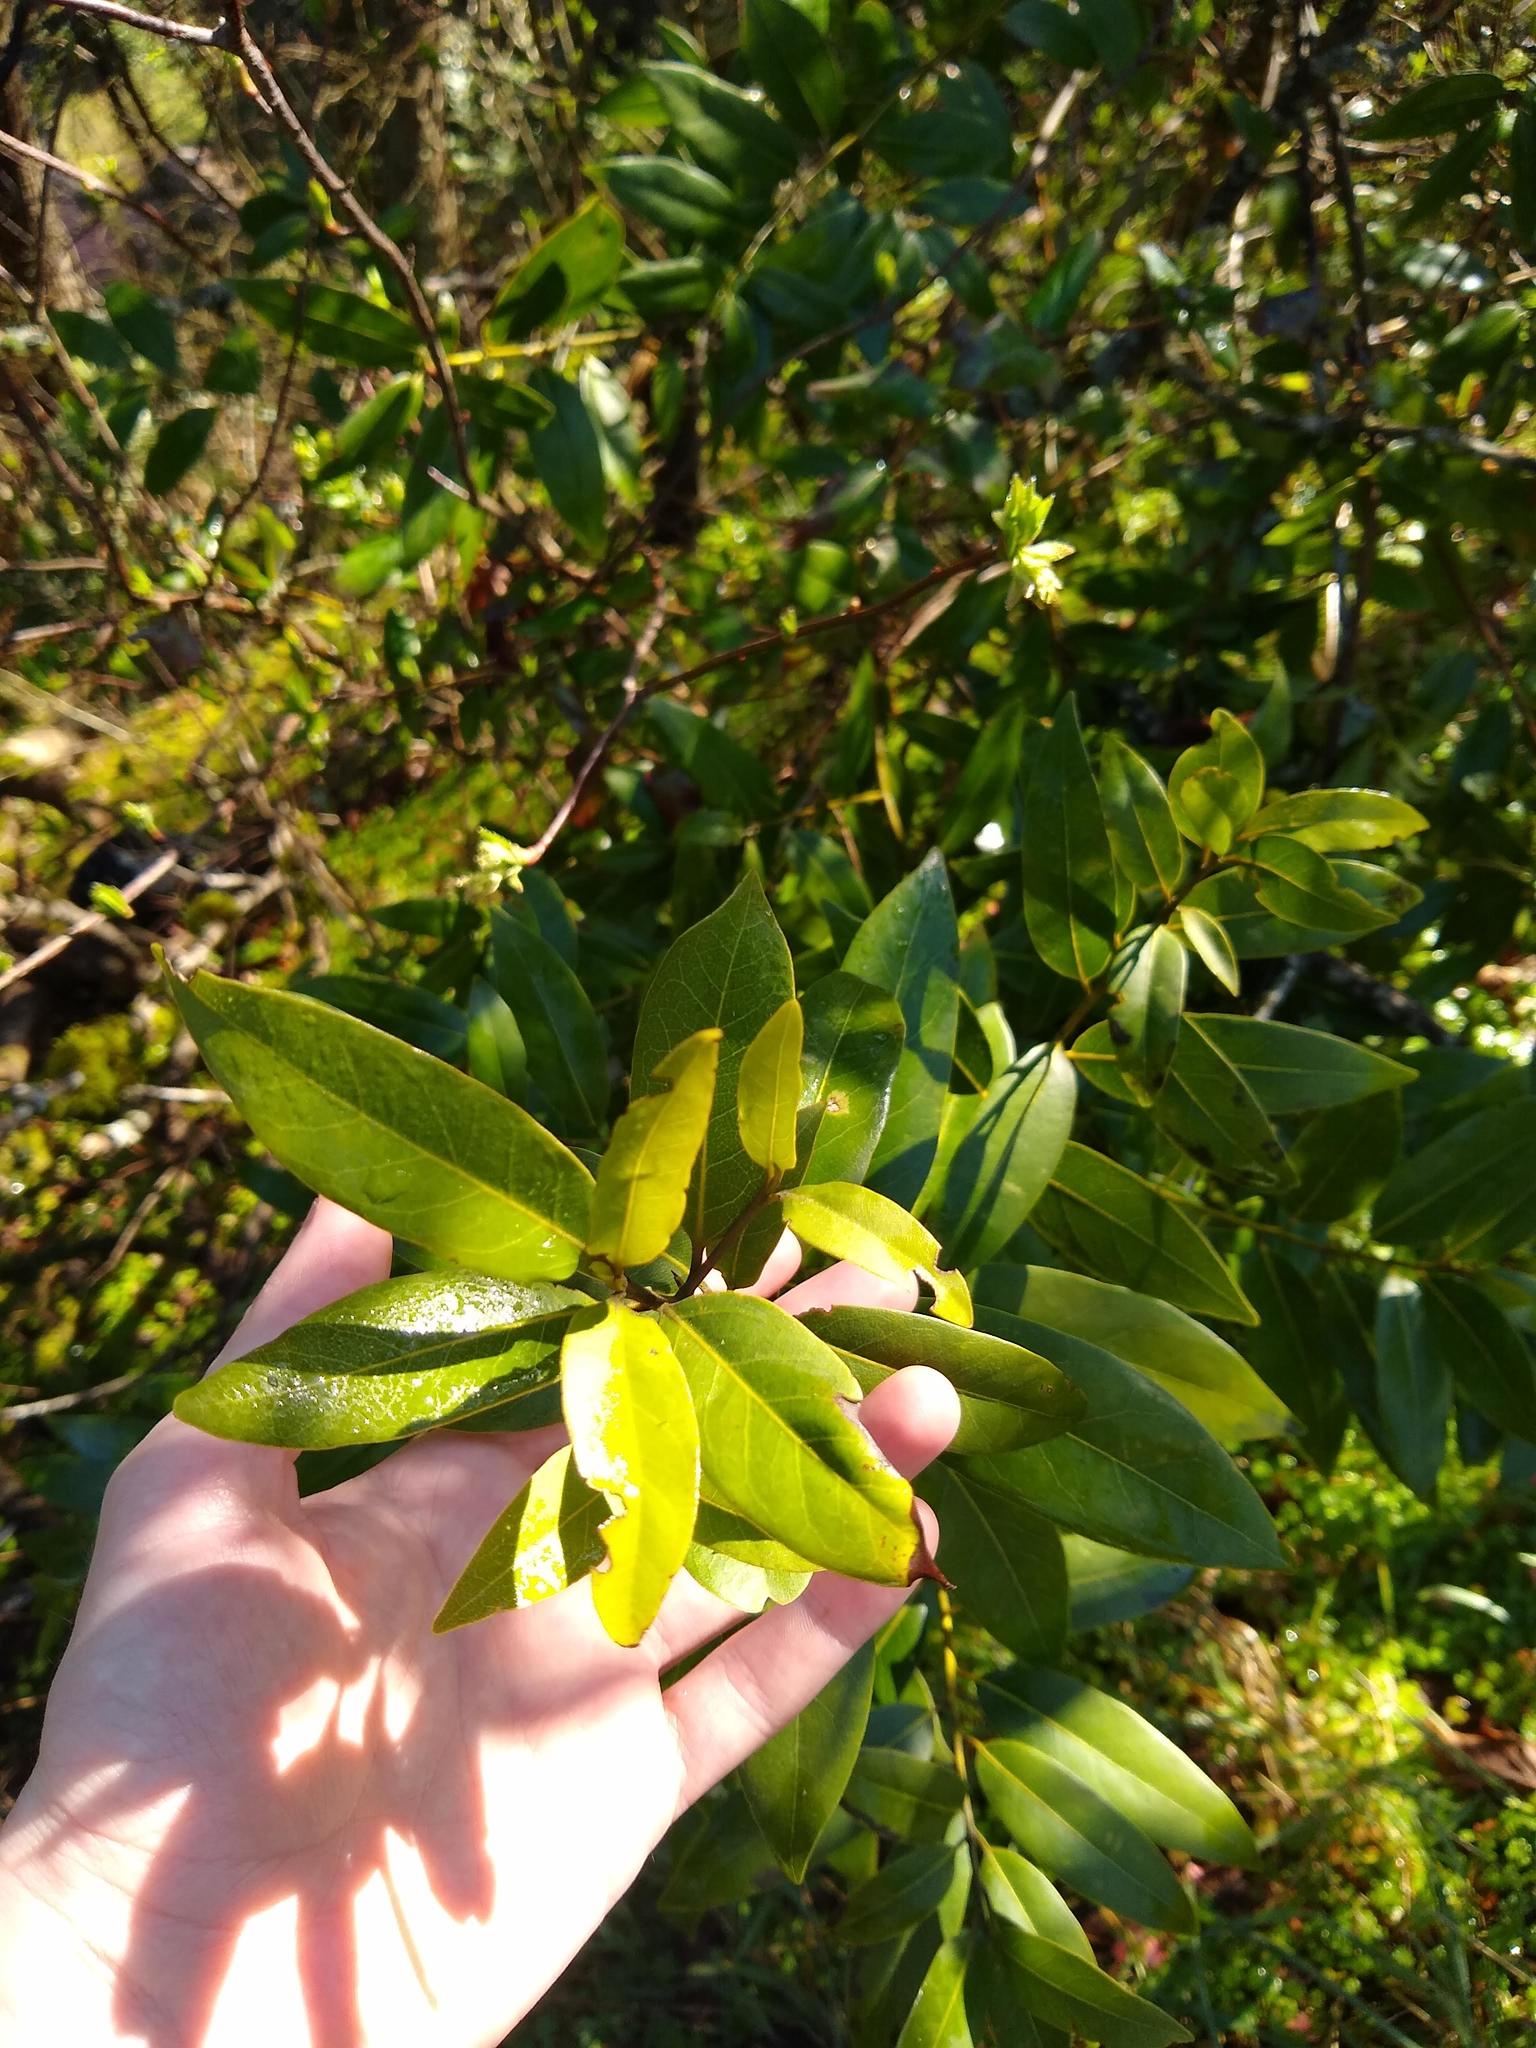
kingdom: Plantae
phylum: Tracheophyta
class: Magnoliopsida
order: Laurales
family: Lauraceae
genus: Umbellularia
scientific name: Umbellularia californica
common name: California bay
